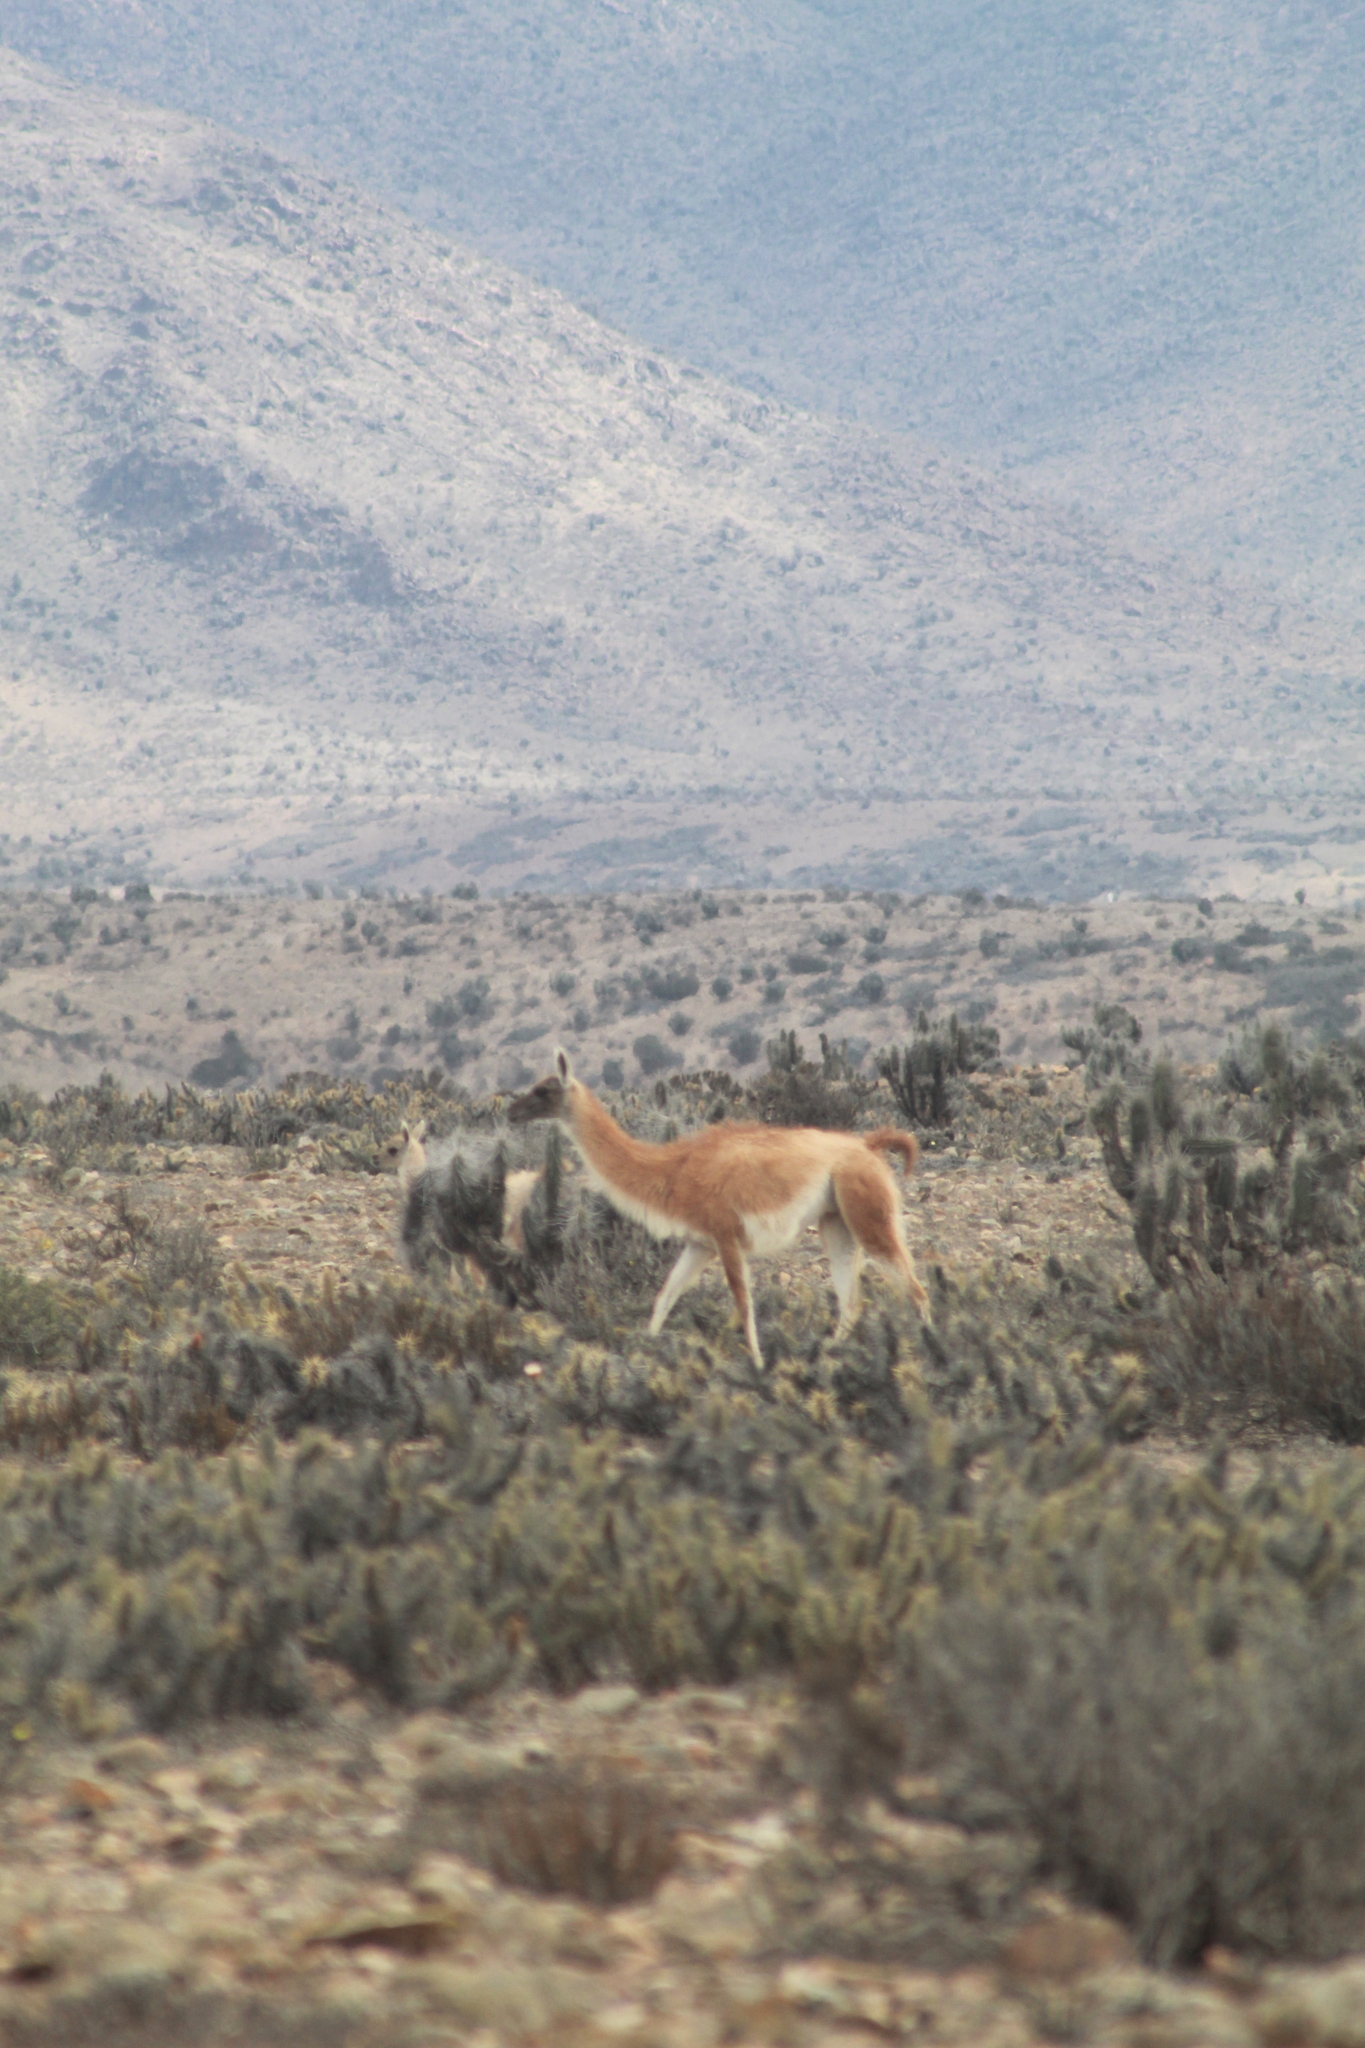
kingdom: Animalia
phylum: Chordata
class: Mammalia
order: Artiodactyla
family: Camelidae
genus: Lama
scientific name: Lama glama
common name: Llama
